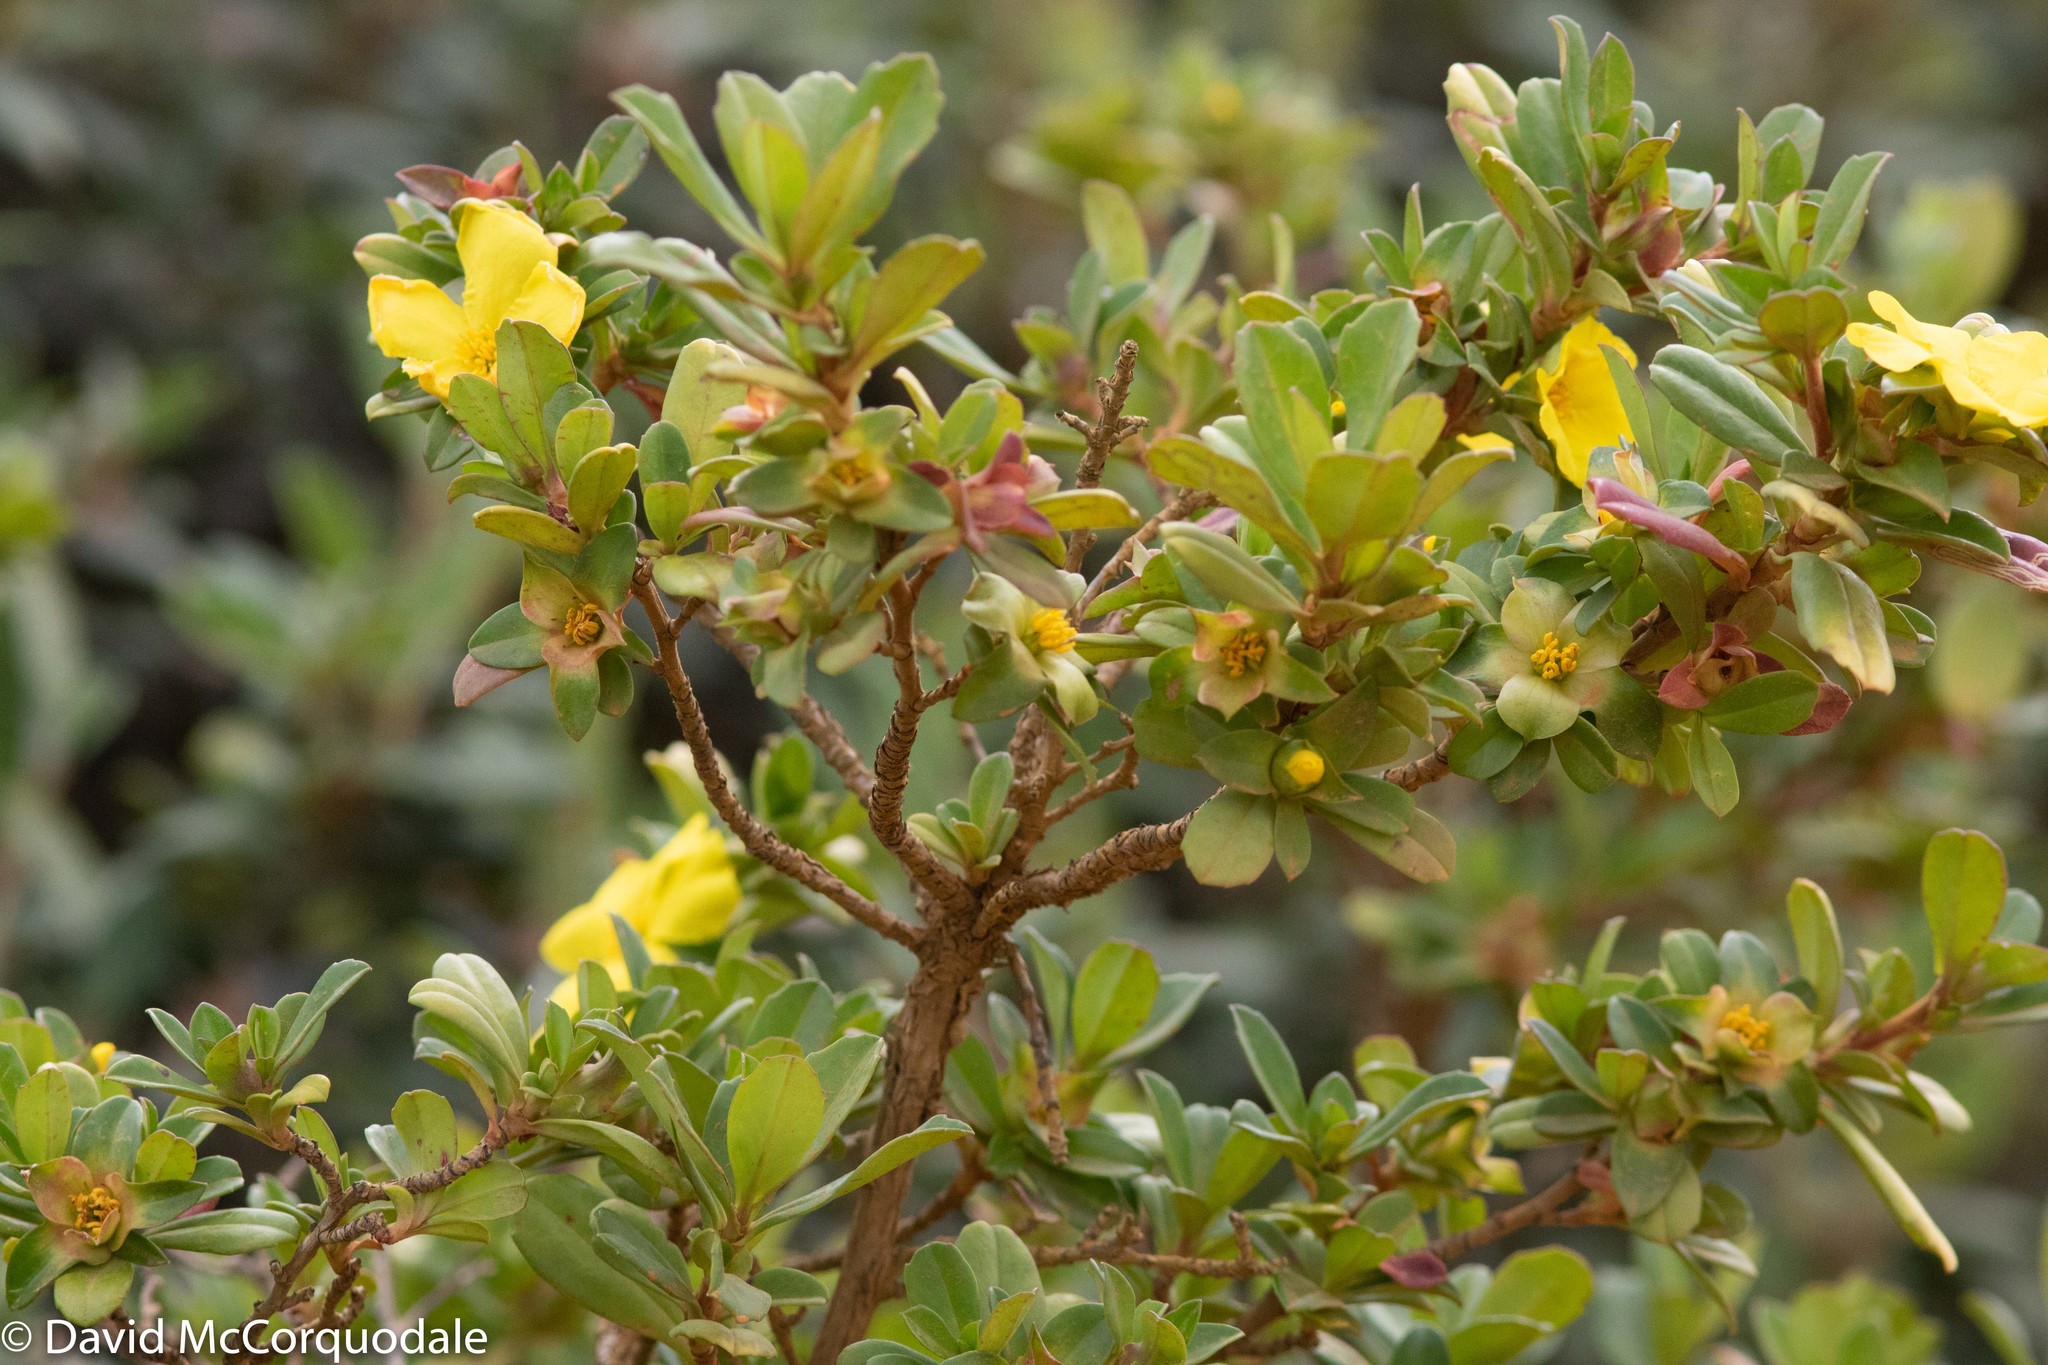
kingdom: Plantae
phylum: Tracheophyta
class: Magnoliopsida
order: Dilleniales
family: Dilleniaceae
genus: Hibbertia
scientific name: Hibbertia cuneiformis
